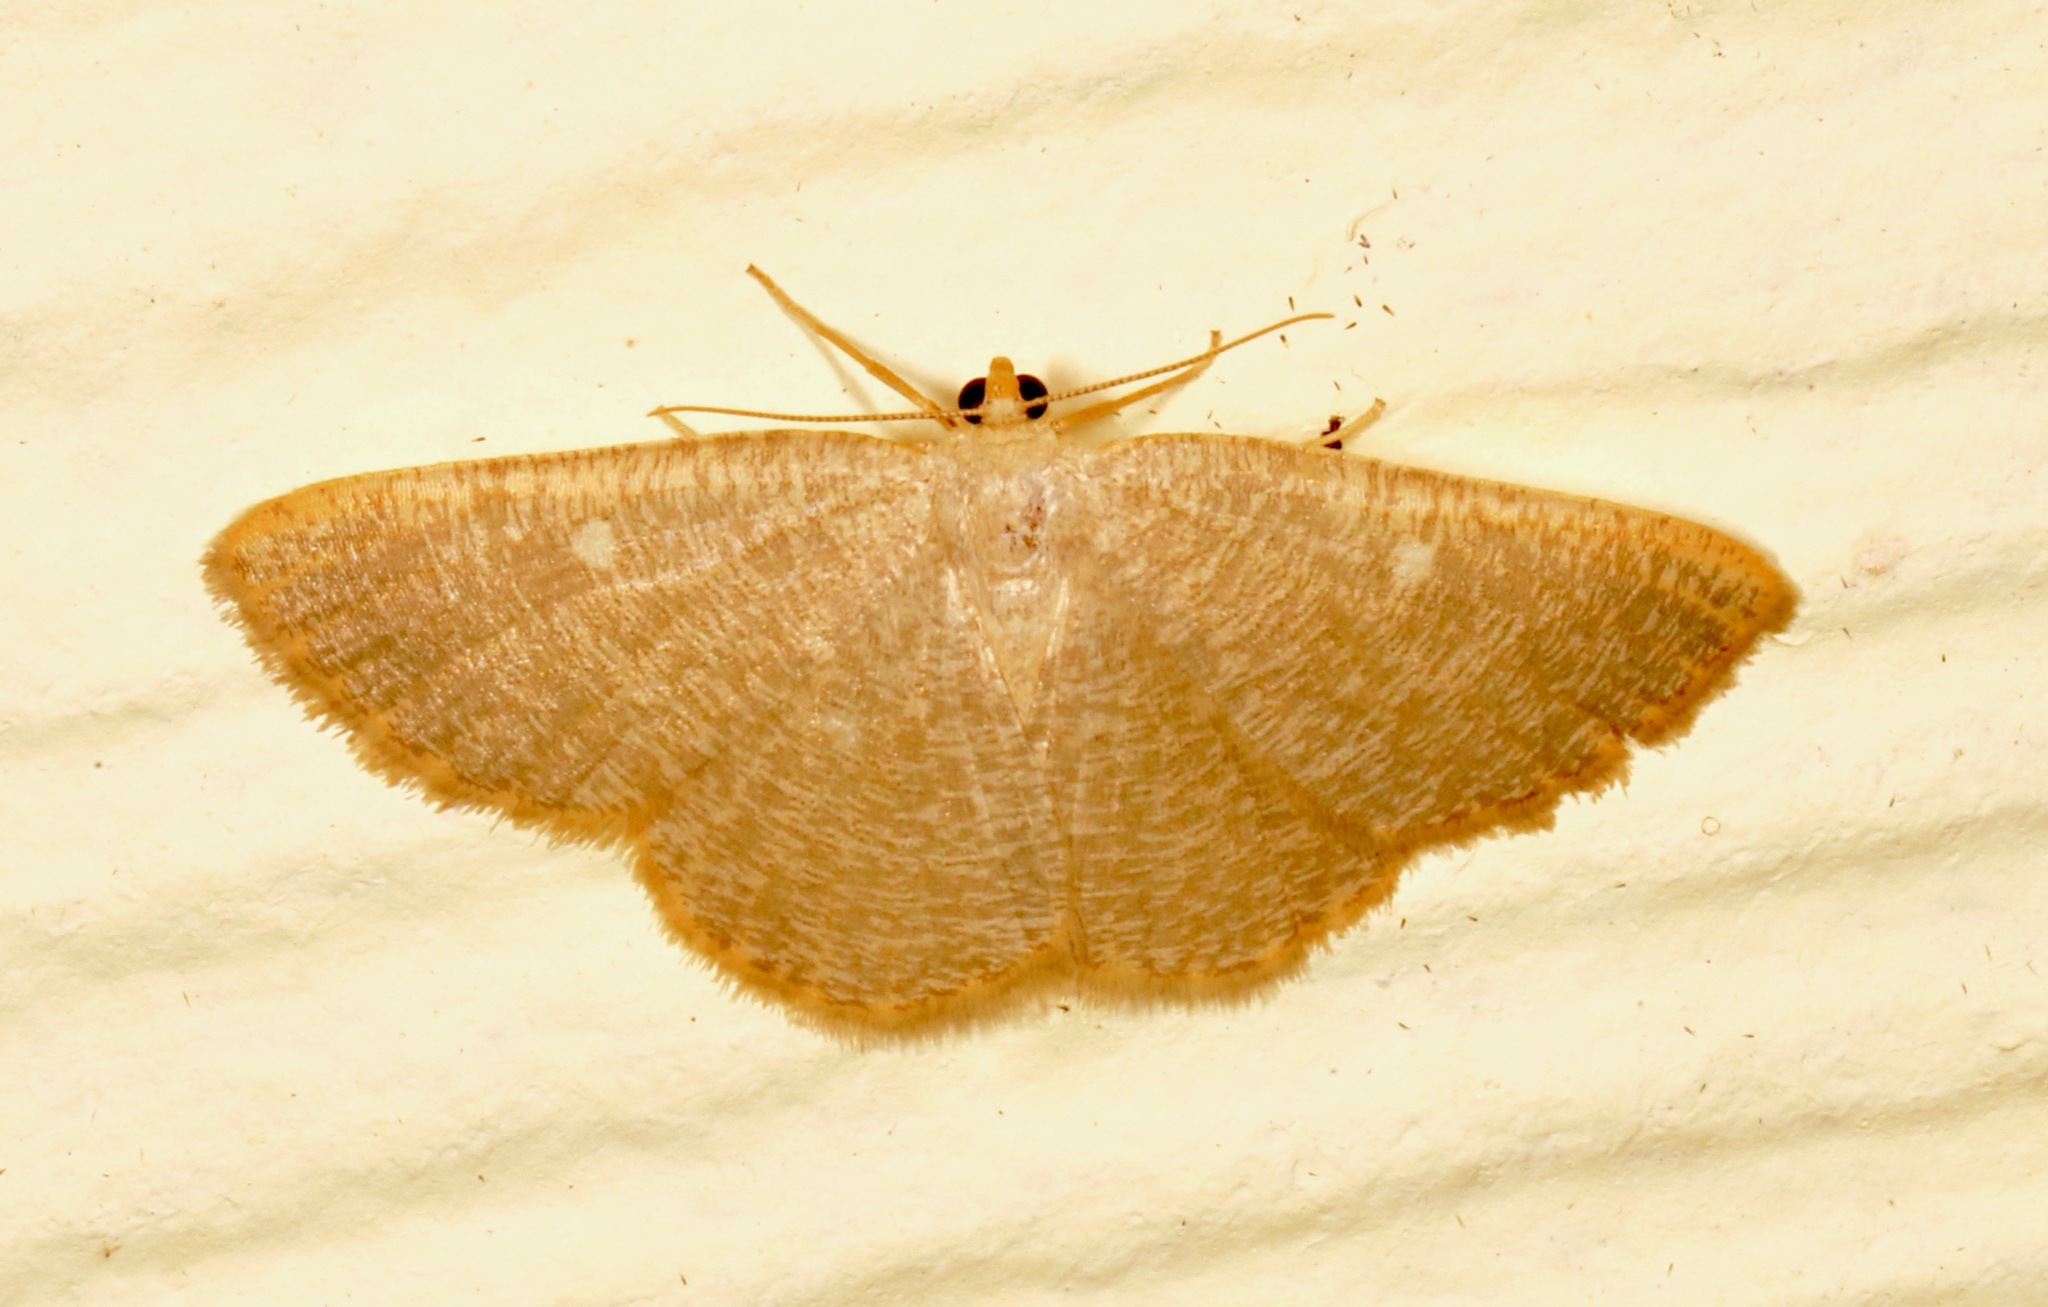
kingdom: Animalia
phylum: Arthropoda
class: Insecta
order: Lepidoptera
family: Geometridae
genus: Pterospoda
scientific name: Pterospoda kunzei
